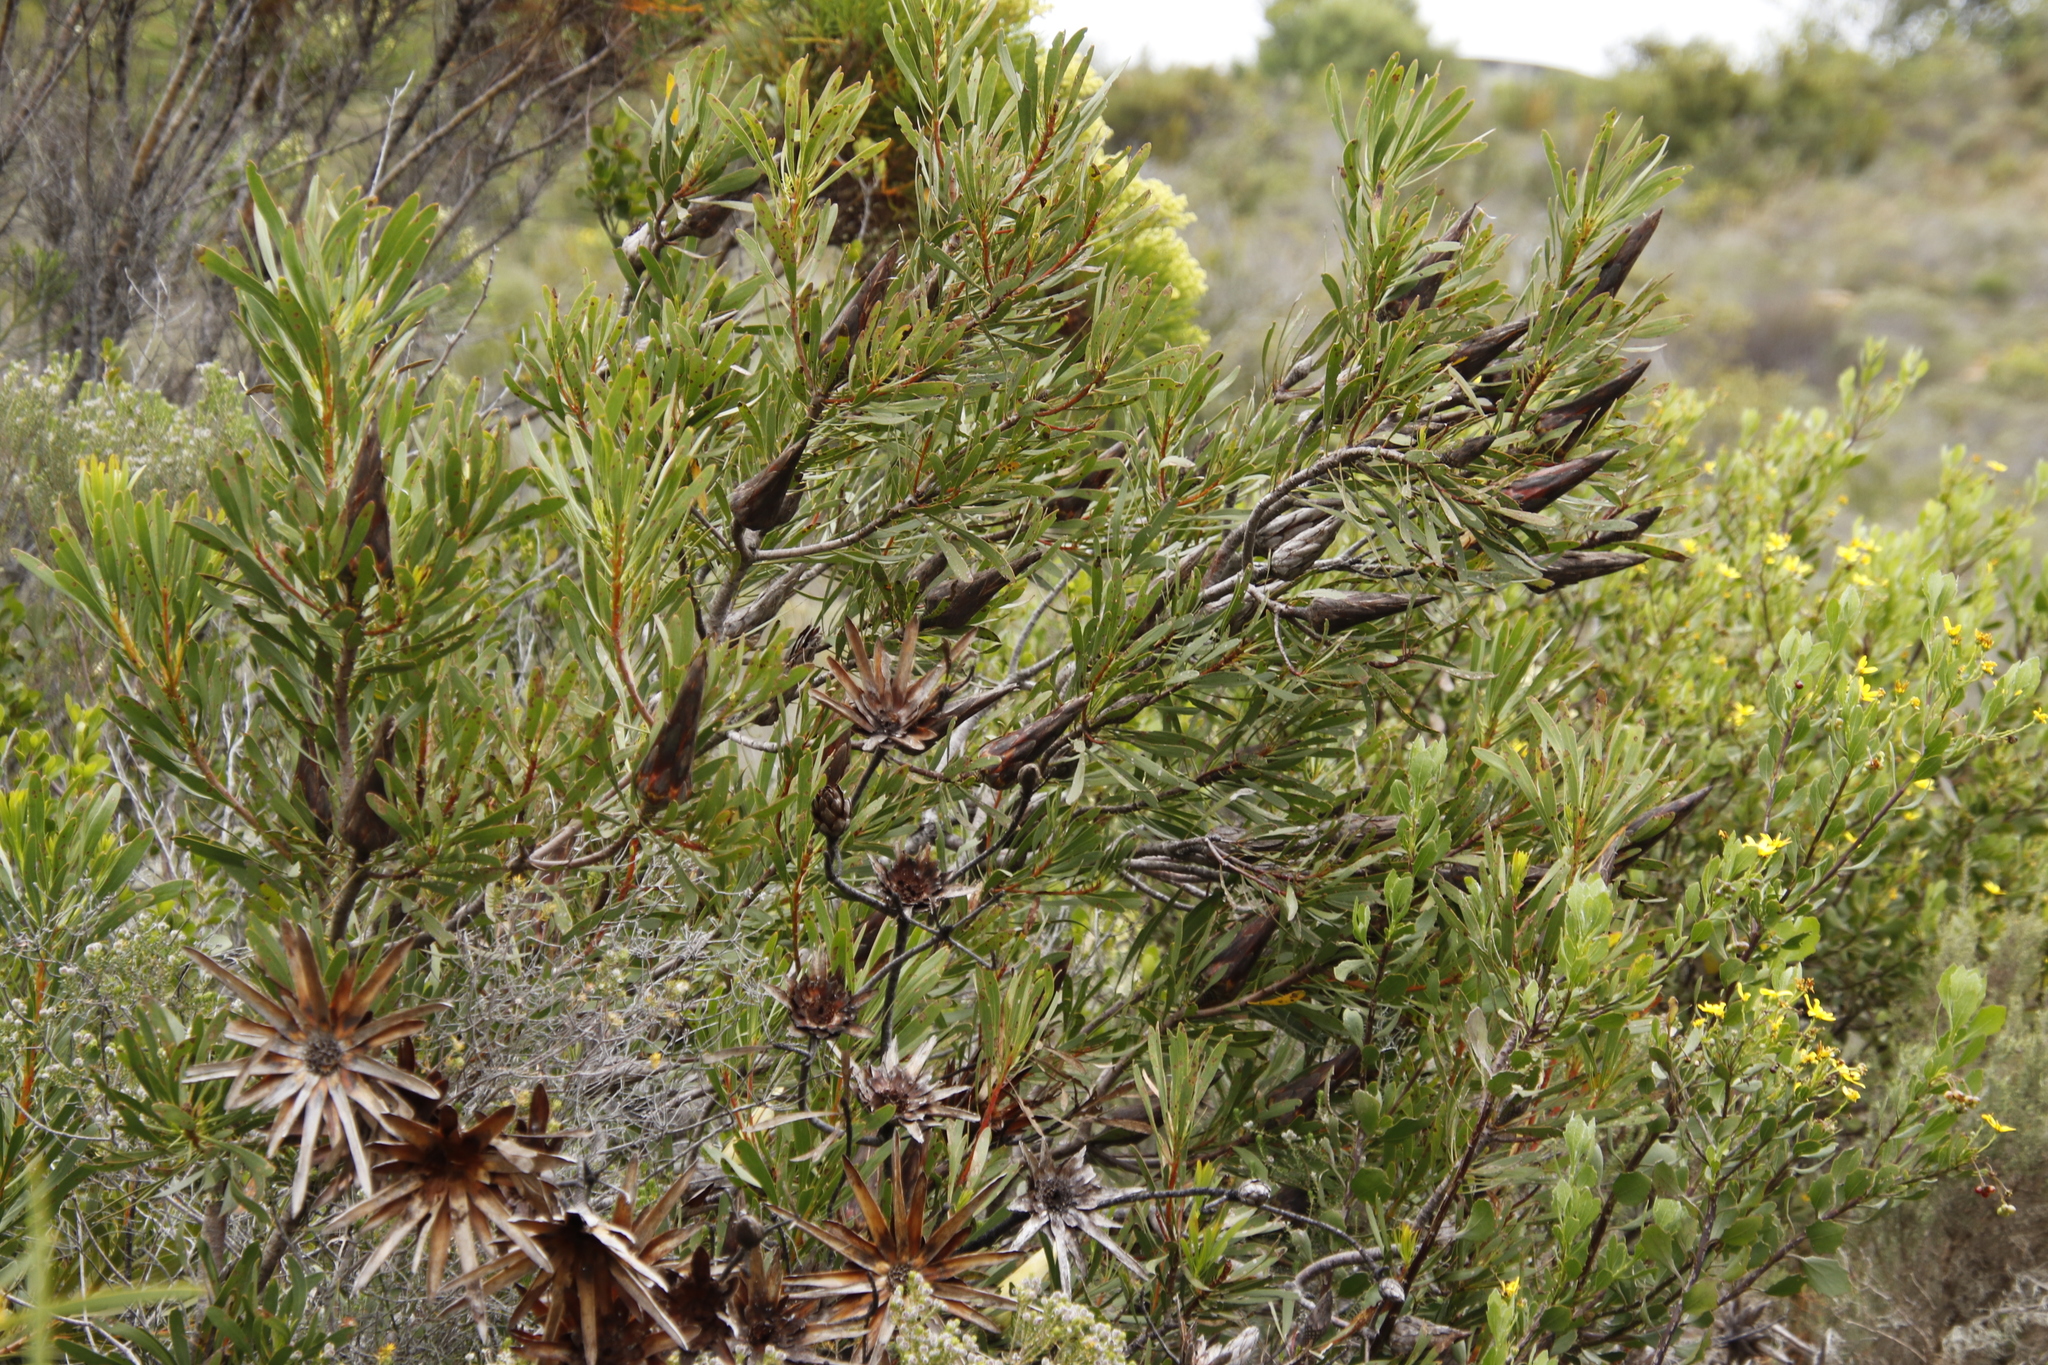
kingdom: Plantae
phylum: Tracheophyta
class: Magnoliopsida
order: Proteales
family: Proteaceae
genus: Protea
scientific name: Protea repens
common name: Sugarbush
